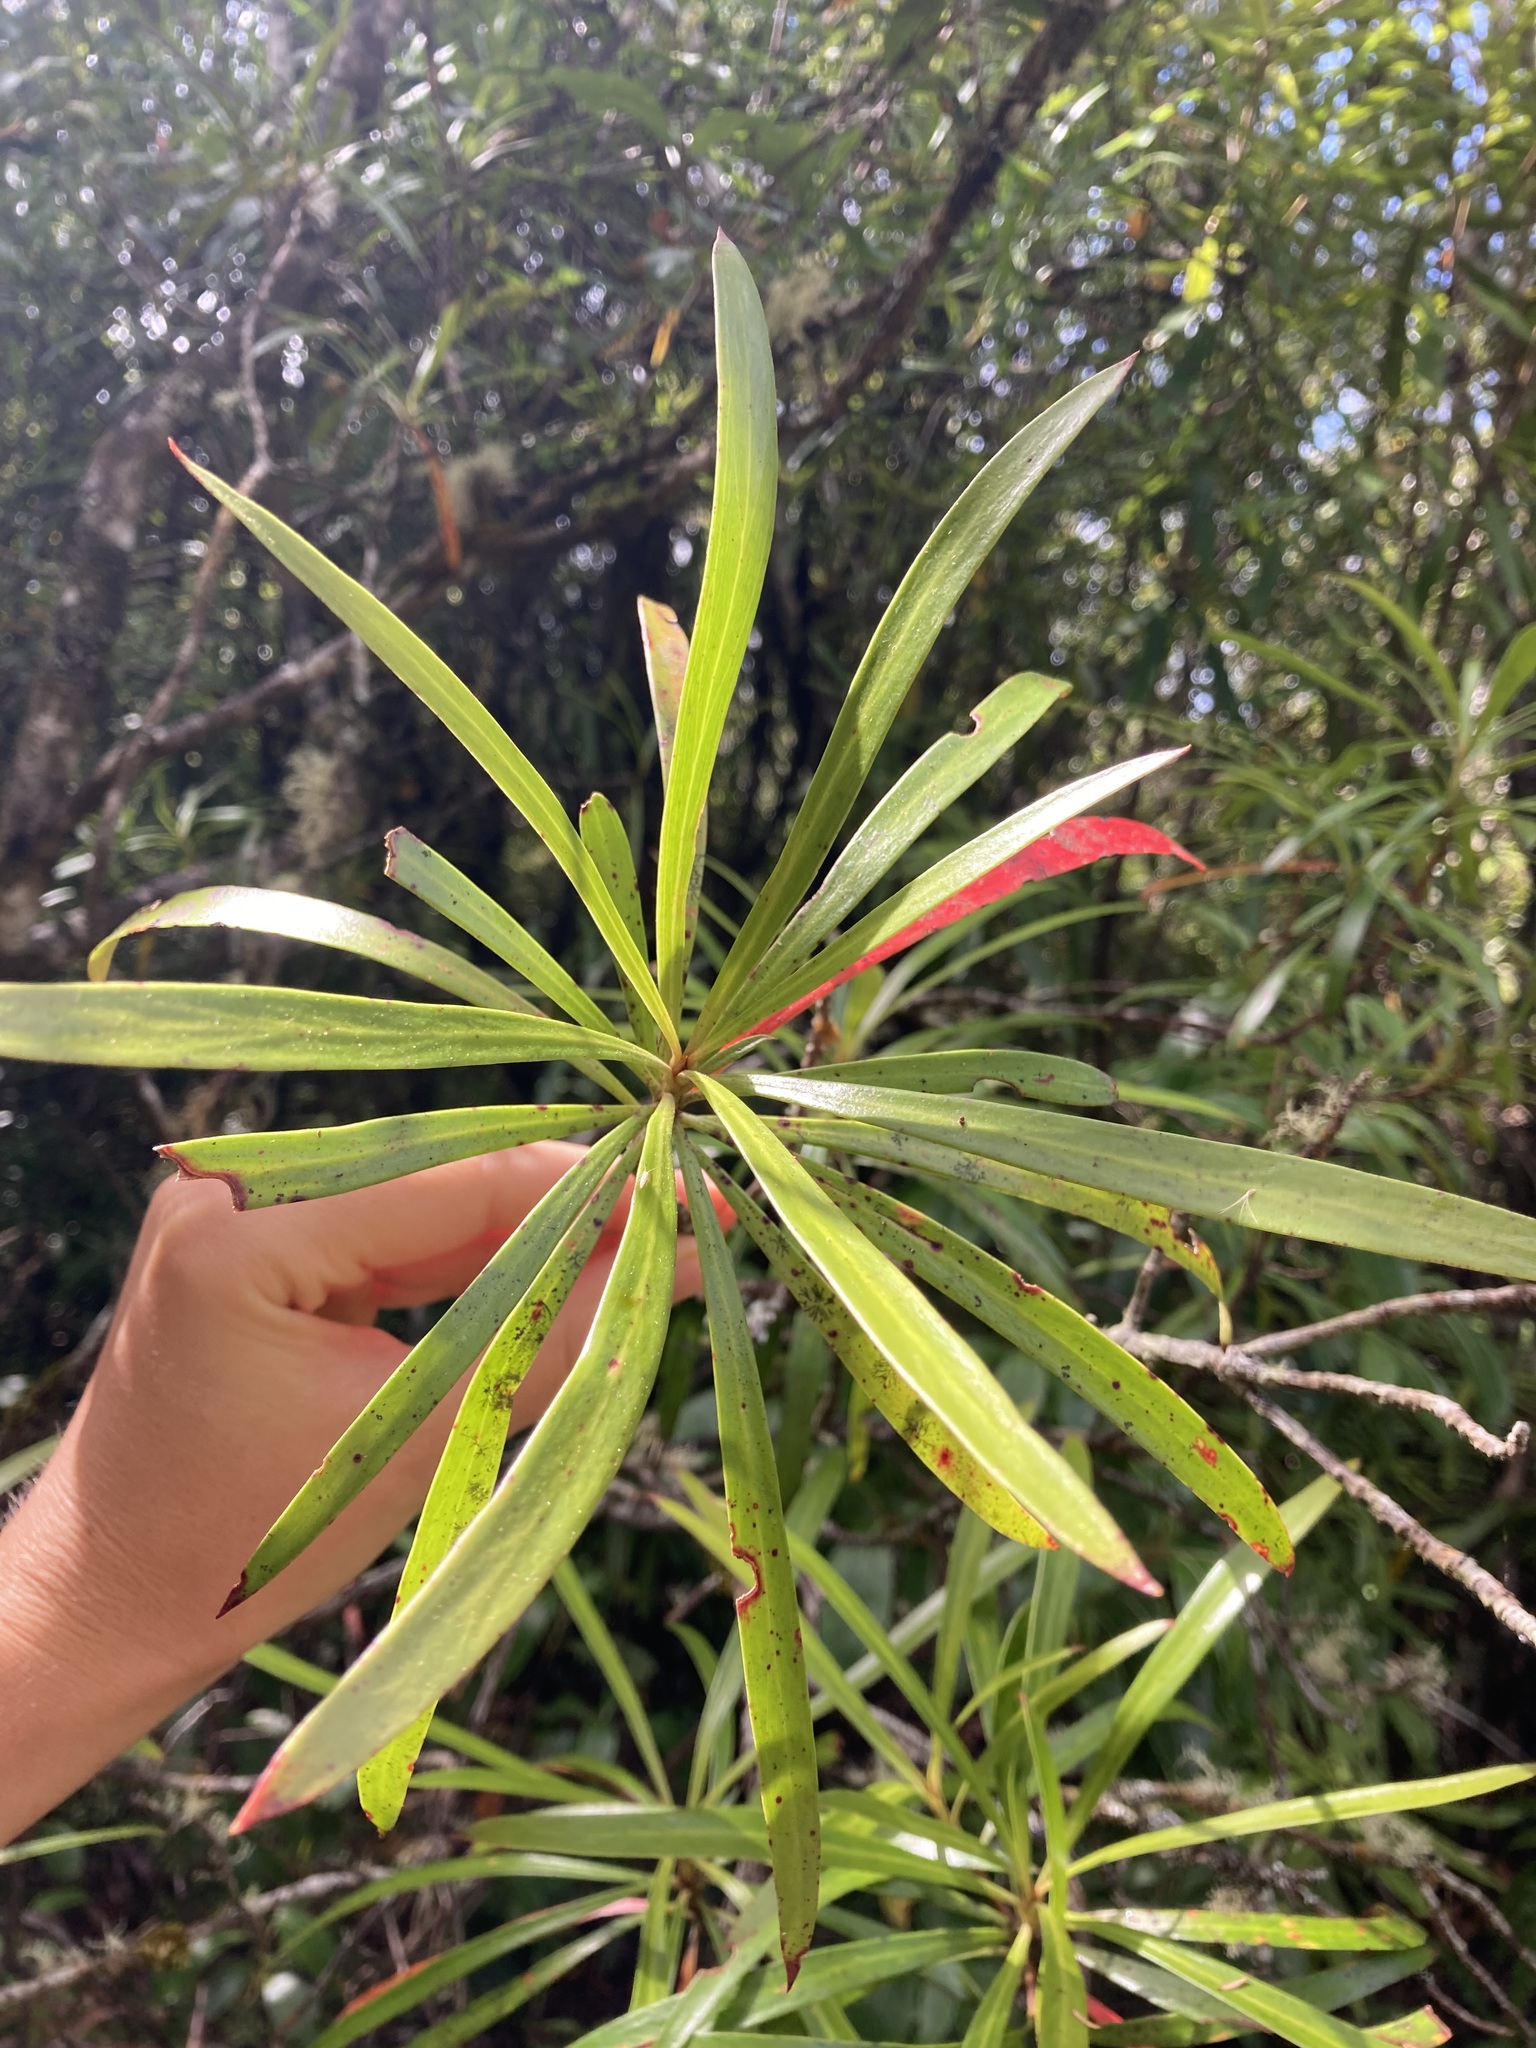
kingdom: Plantae
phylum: Tracheophyta
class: Magnoliopsida
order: Proteales
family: Proteaceae
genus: Toronia
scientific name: Toronia toru
